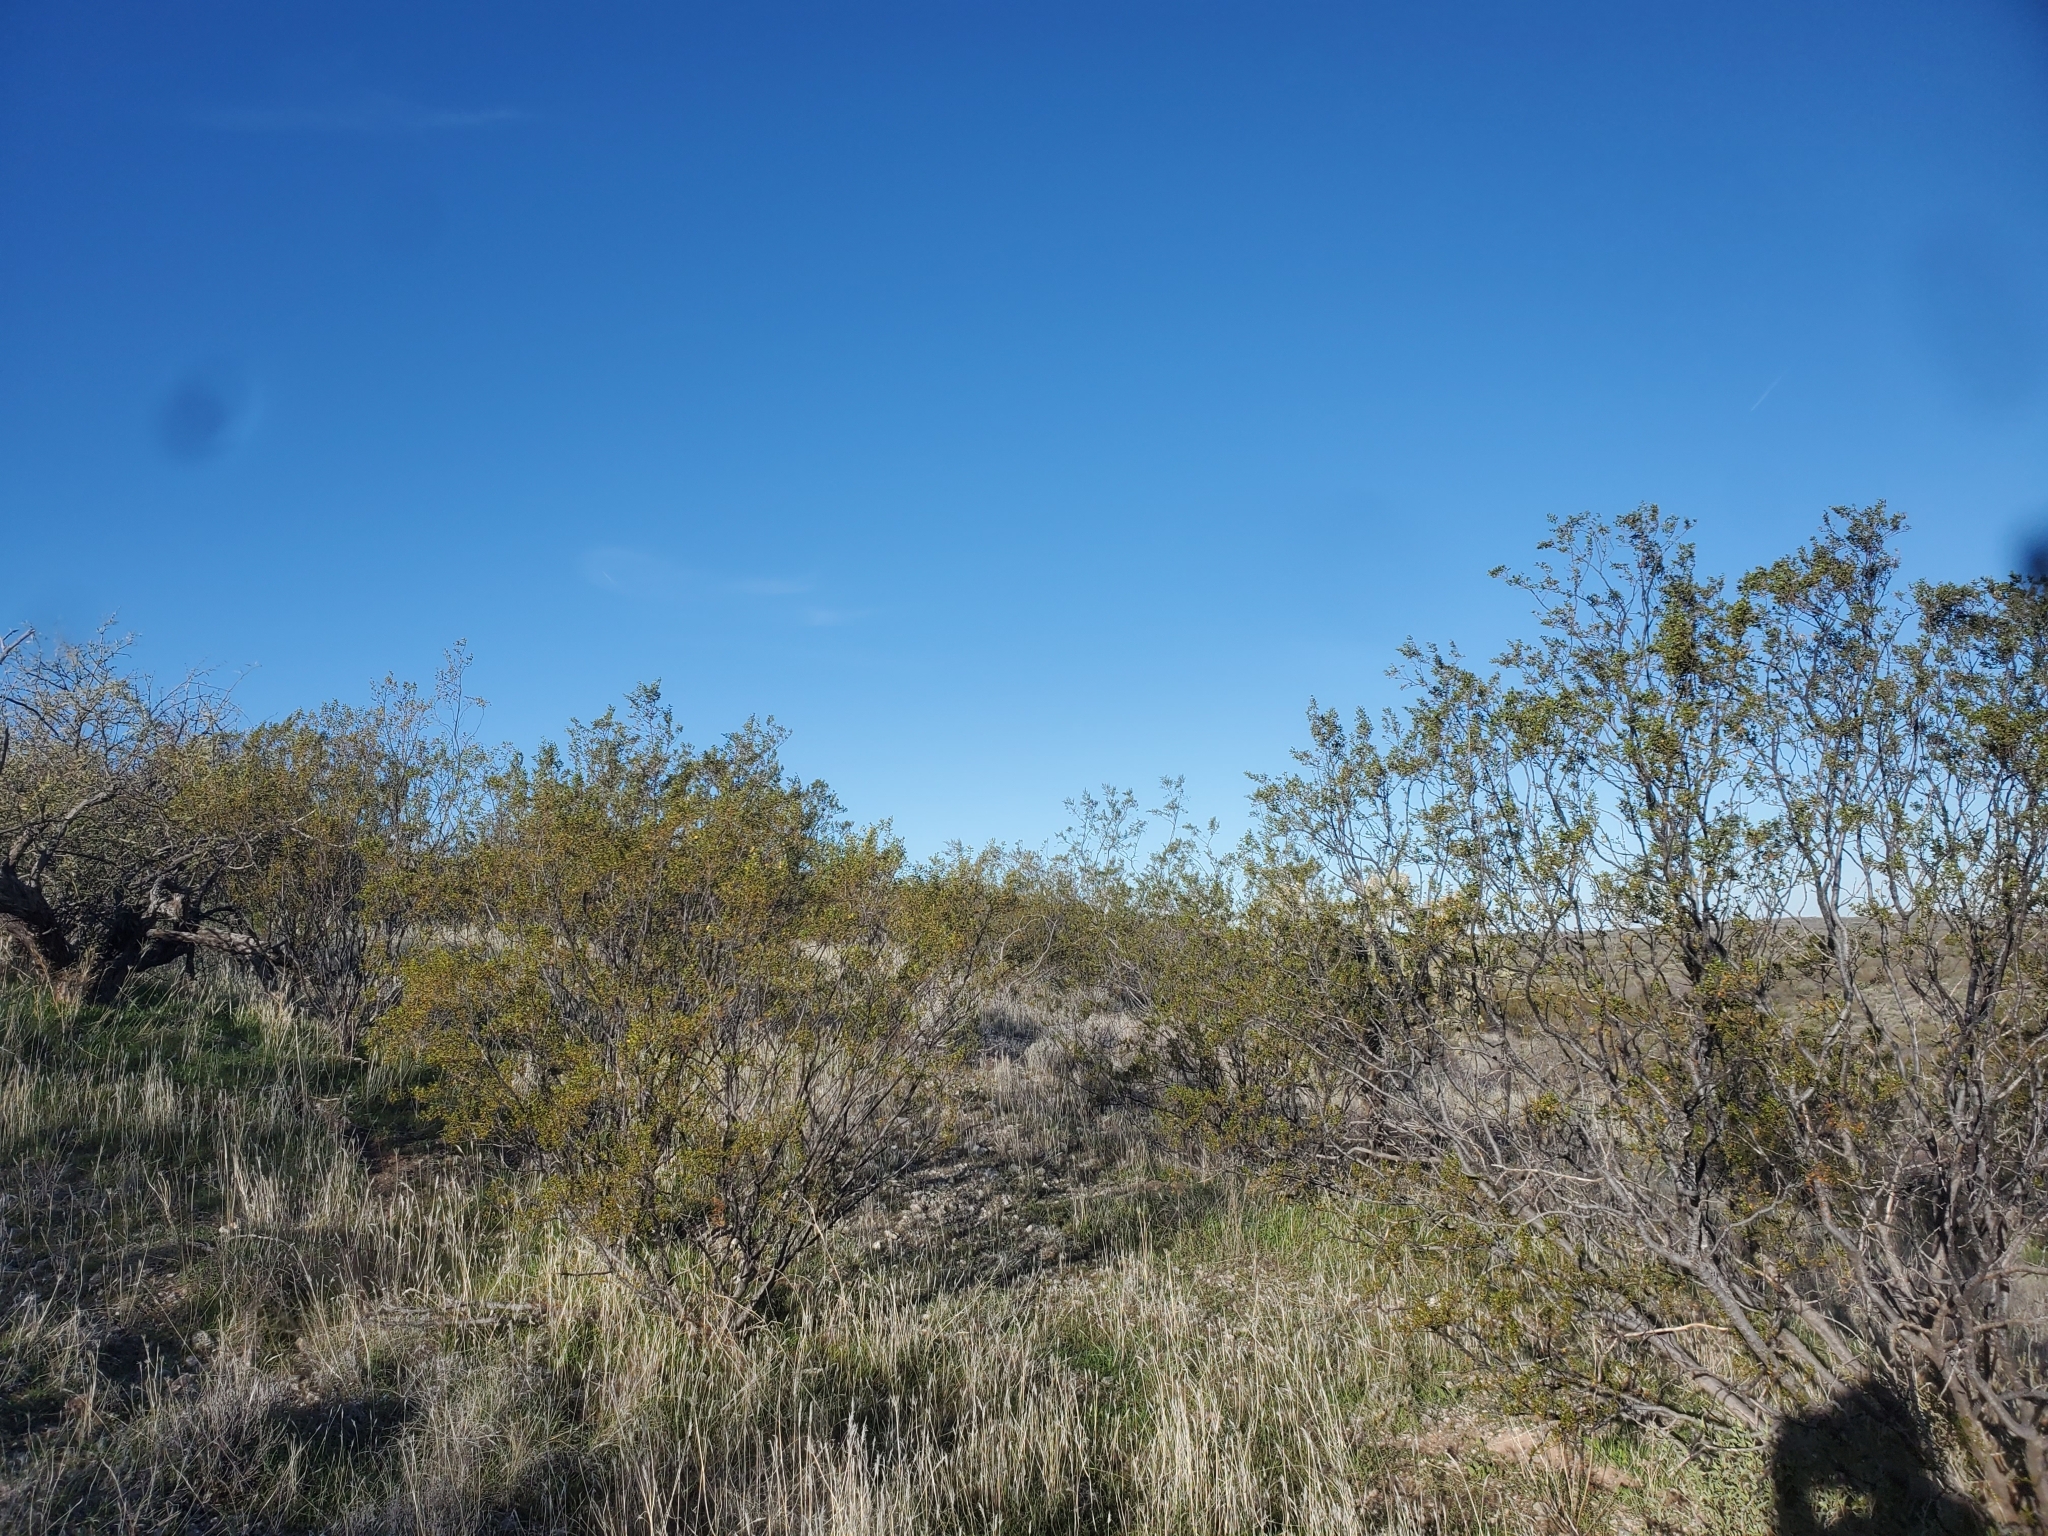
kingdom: Plantae
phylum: Tracheophyta
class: Magnoliopsida
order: Zygophyllales
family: Zygophyllaceae
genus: Larrea
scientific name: Larrea tridentata
